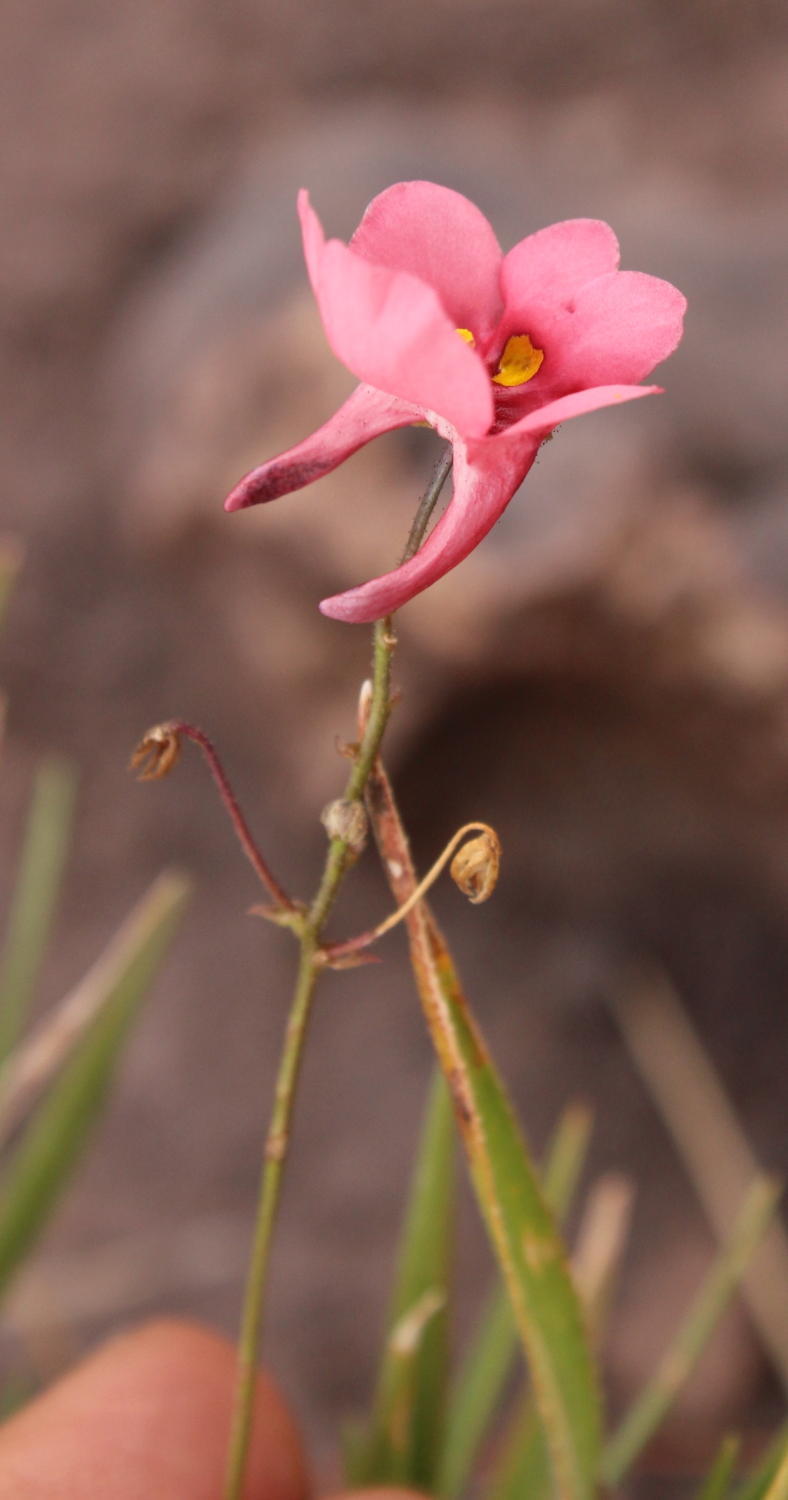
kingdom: Plantae
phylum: Tracheophyta
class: Magnoliopsida
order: Lamiales
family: Scrophulariaceae
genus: Diascia
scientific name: Diascia capsularis
